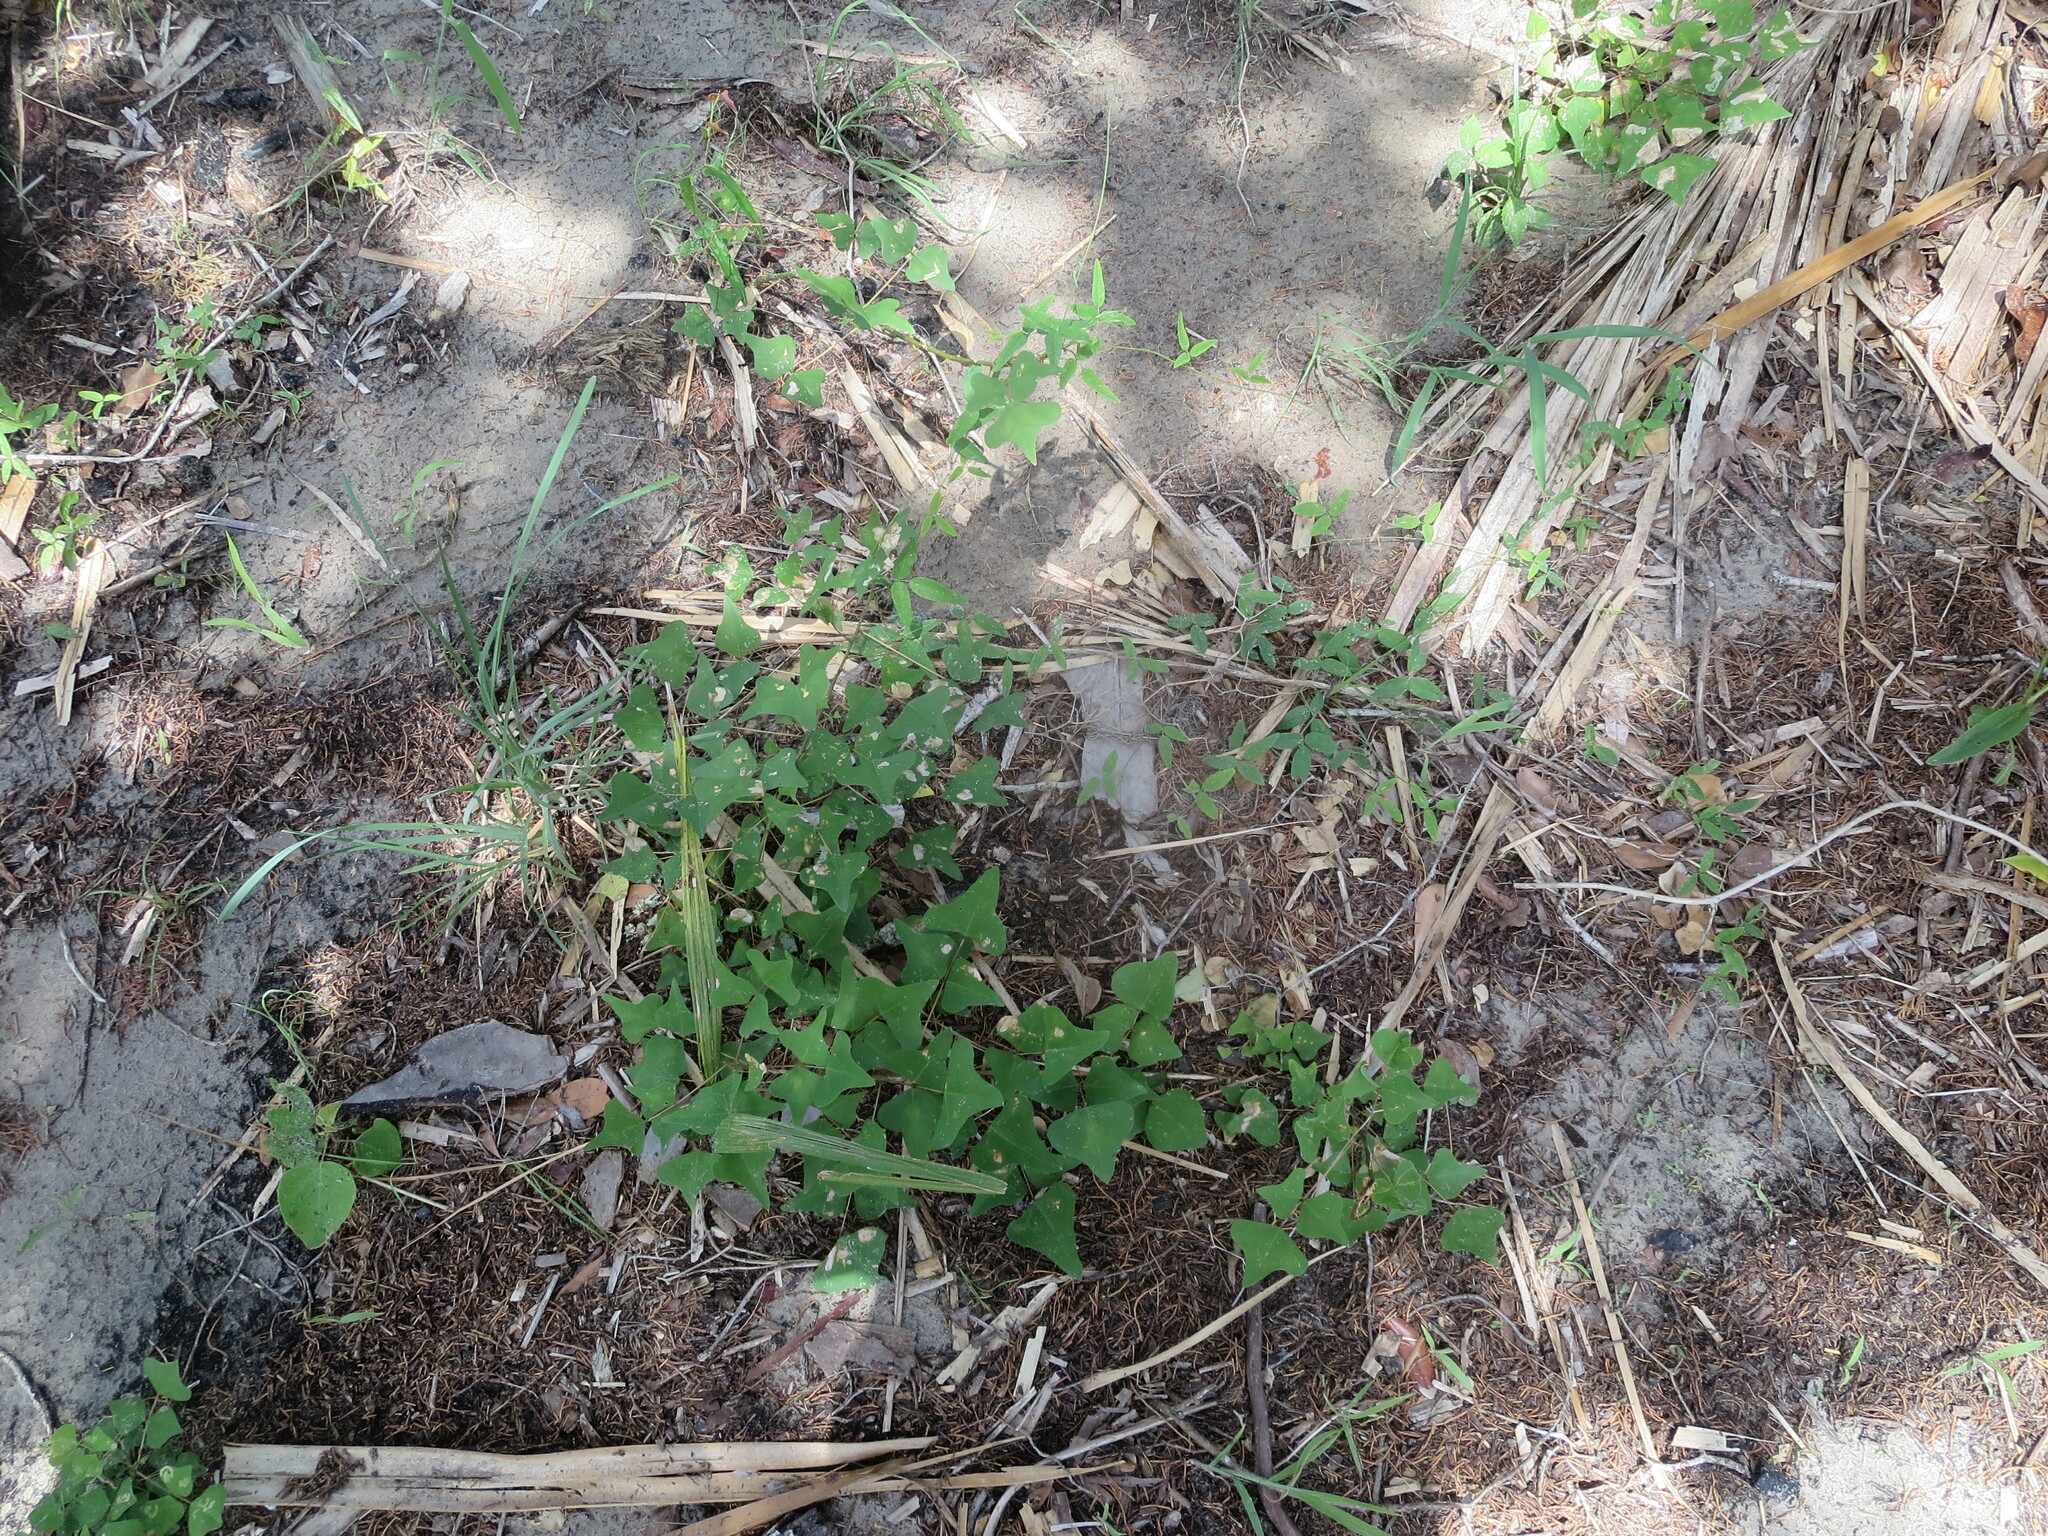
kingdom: Plantae
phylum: Tracheophyta
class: Magnoliopsida
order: Fabales
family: Fabaceae
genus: Erythrina
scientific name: Erythrina herbacea
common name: Coral-bean
